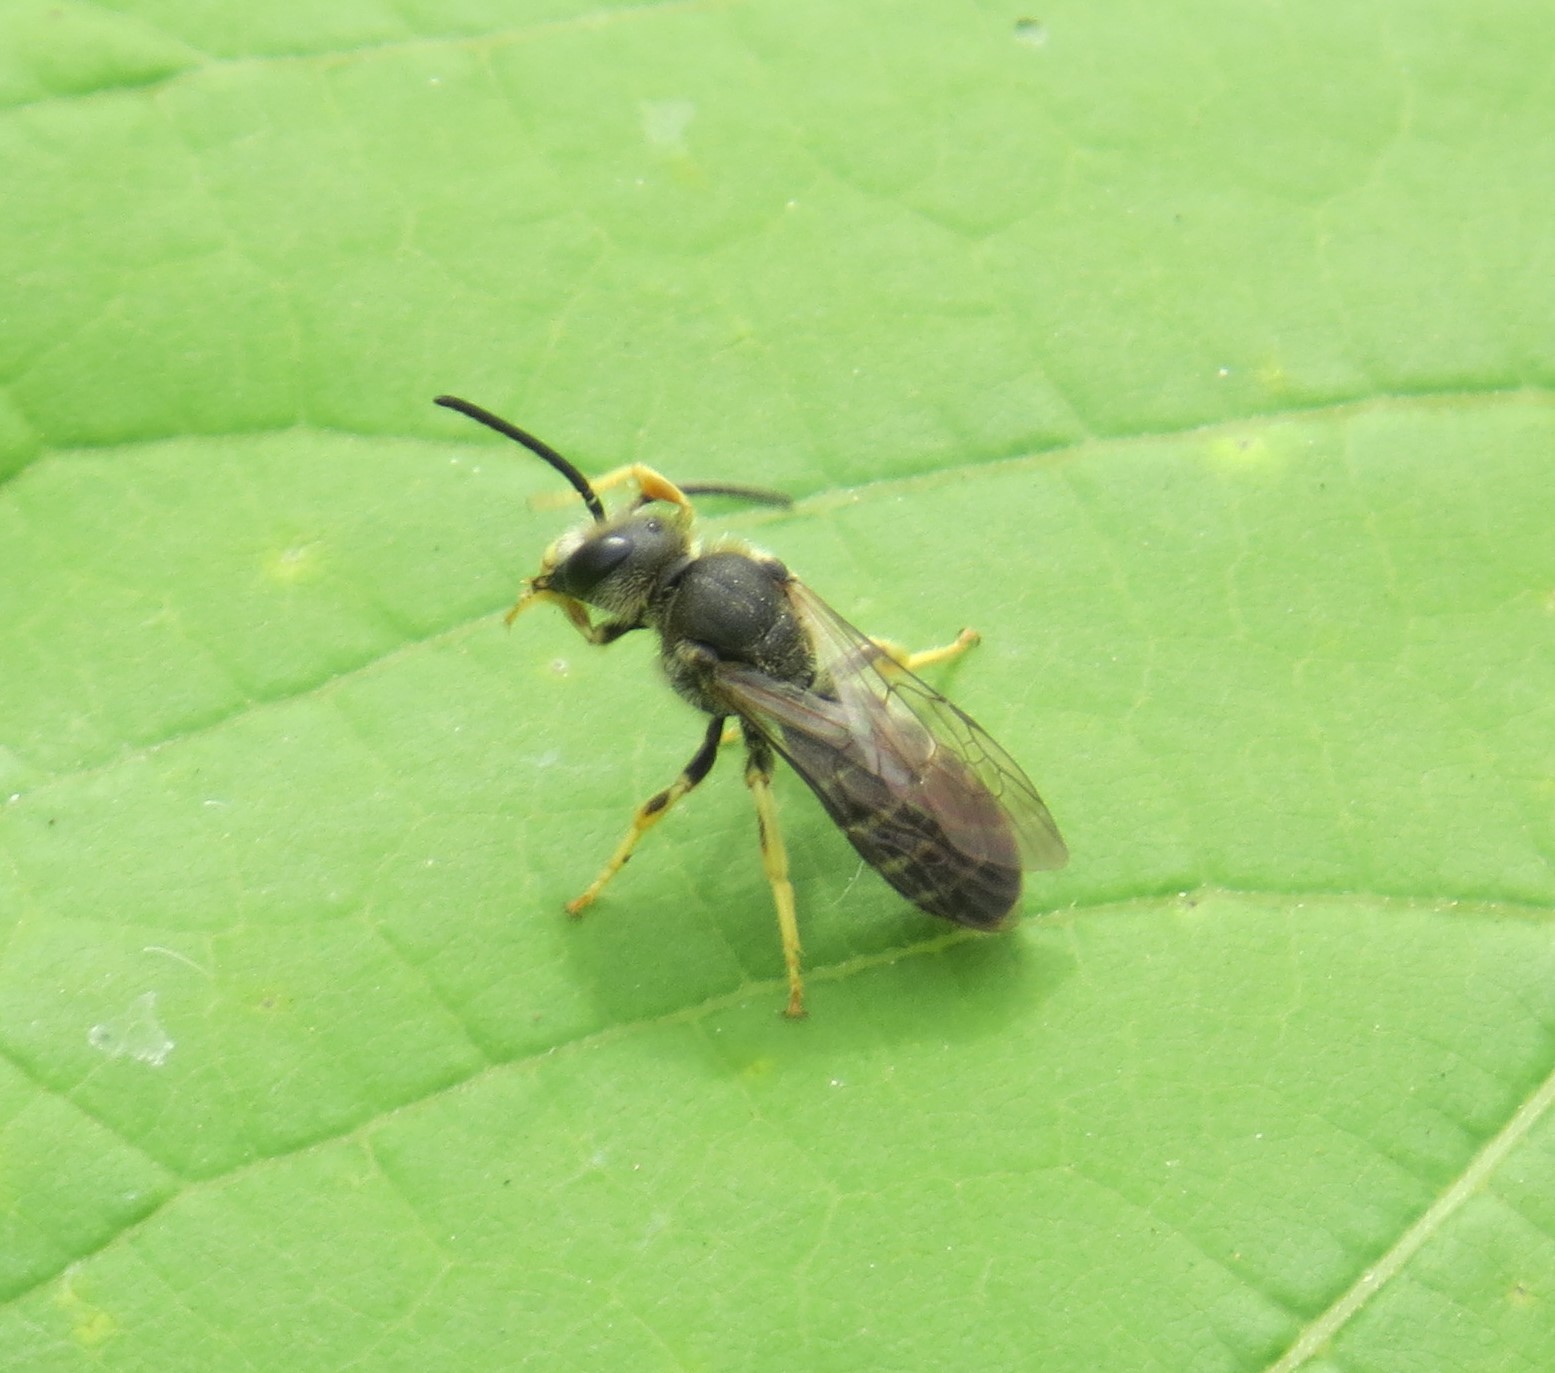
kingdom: Animalia
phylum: Arthropoda
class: Insecta
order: Hymenoptera
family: Halictidae
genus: Halictus
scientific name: Halictus rubicundus
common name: Orange-legged furrow bee
